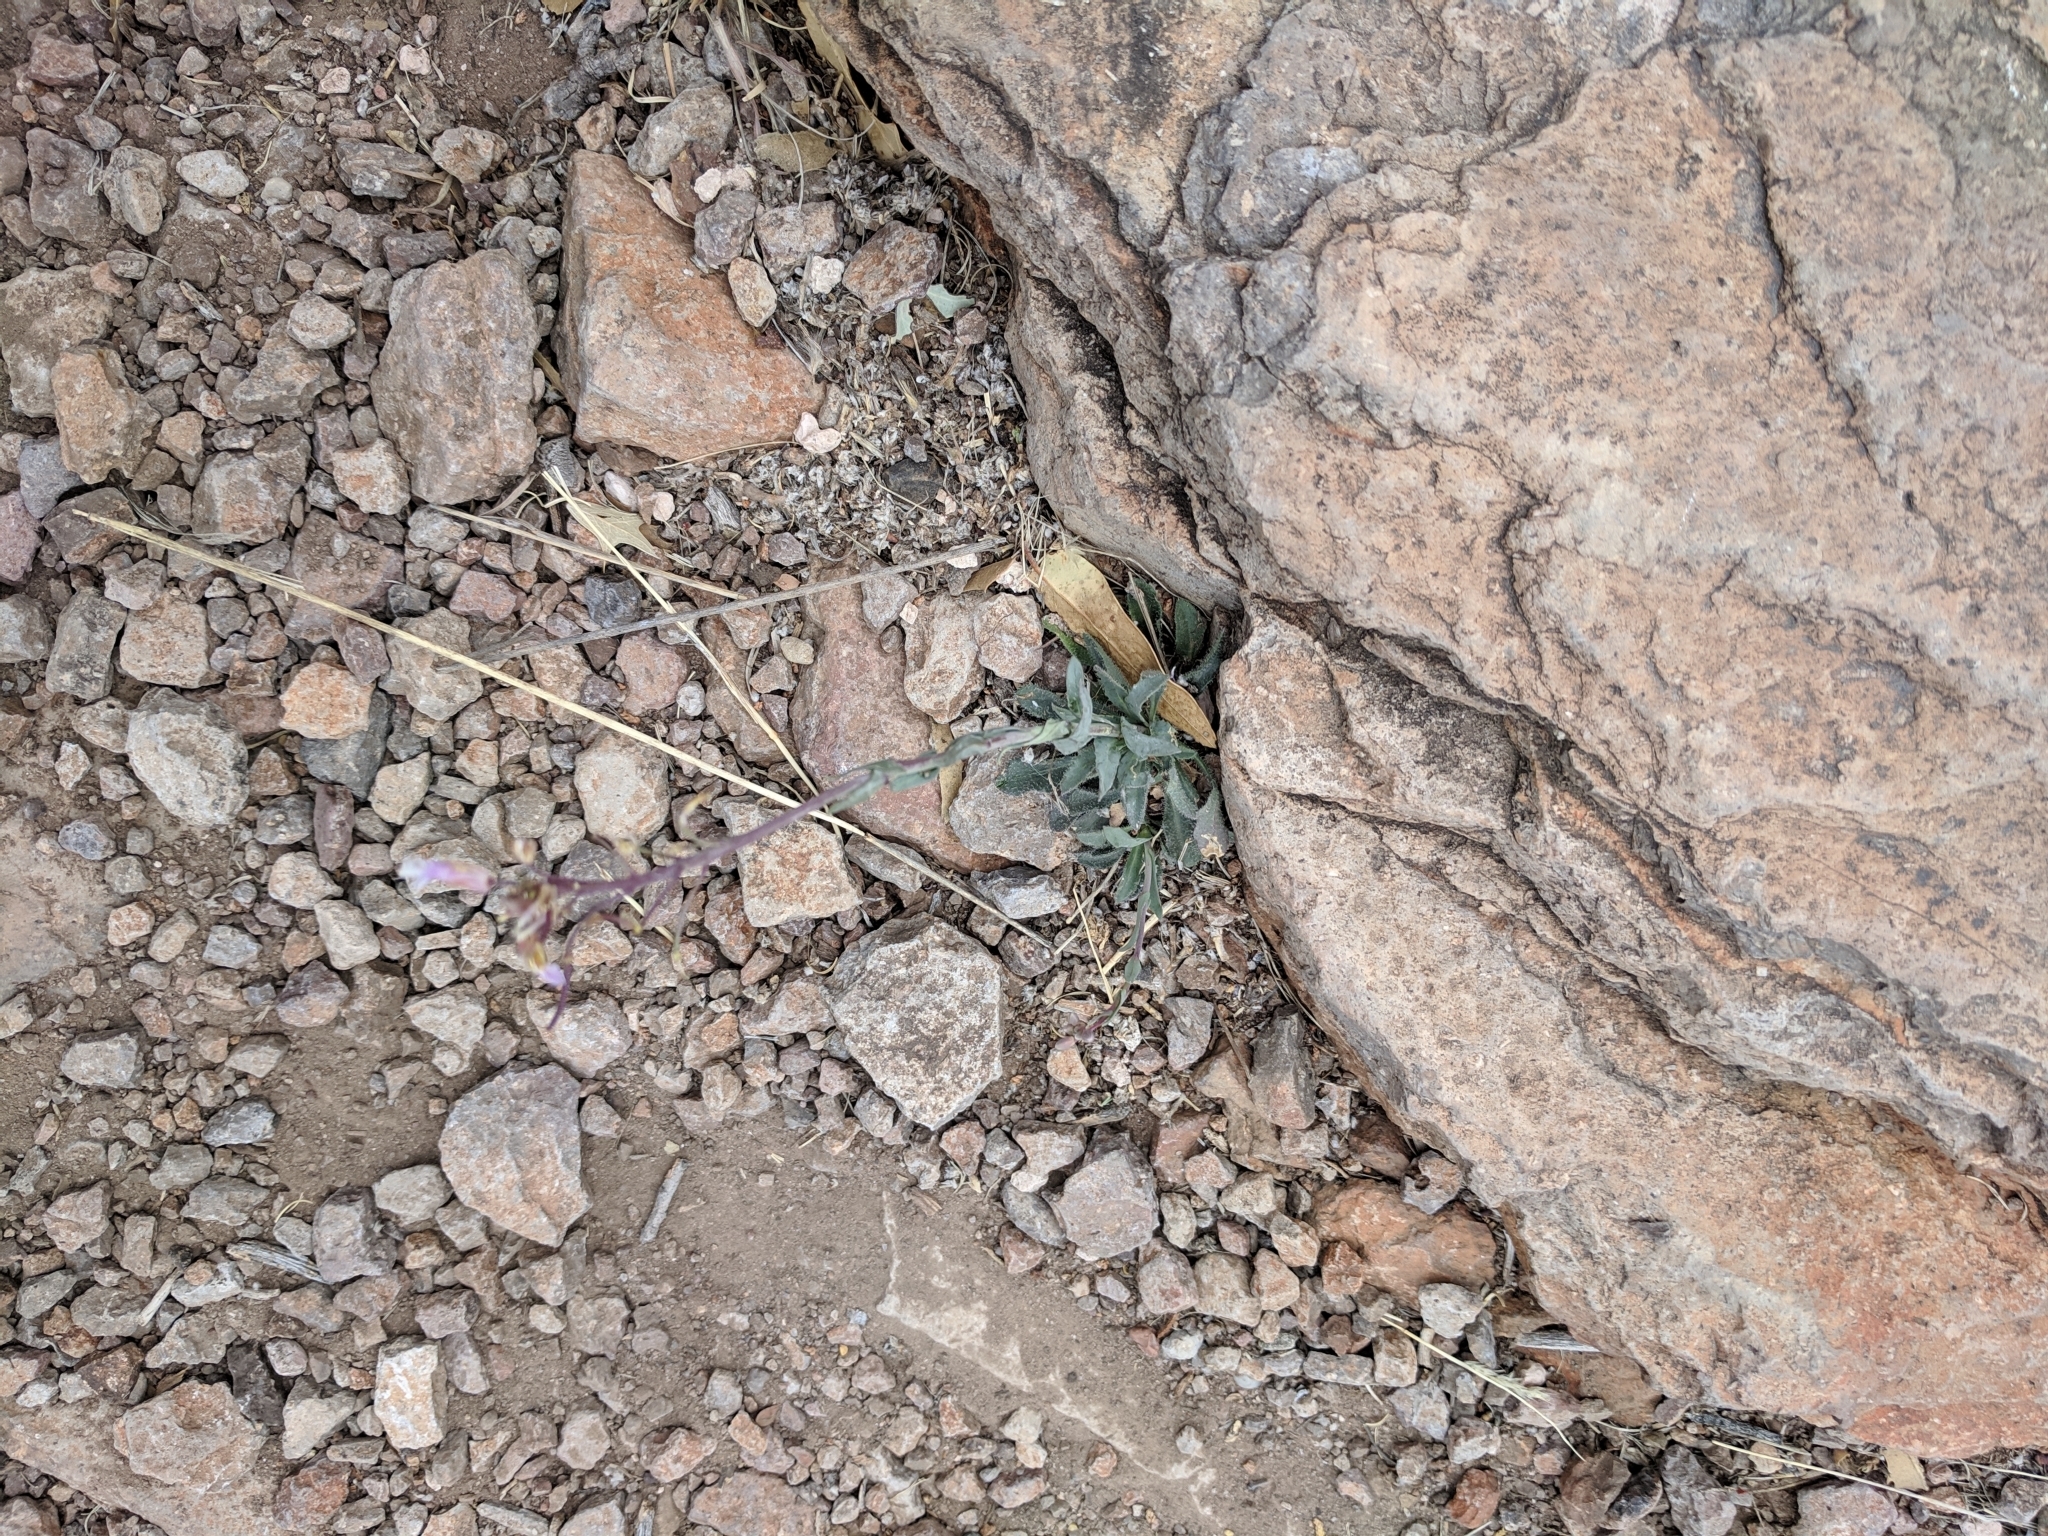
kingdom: Plantae
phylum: Tracheophyta
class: Magnoliopsida
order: Brassicales
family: Brassicaceae
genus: Boechera
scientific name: Boechera texana
